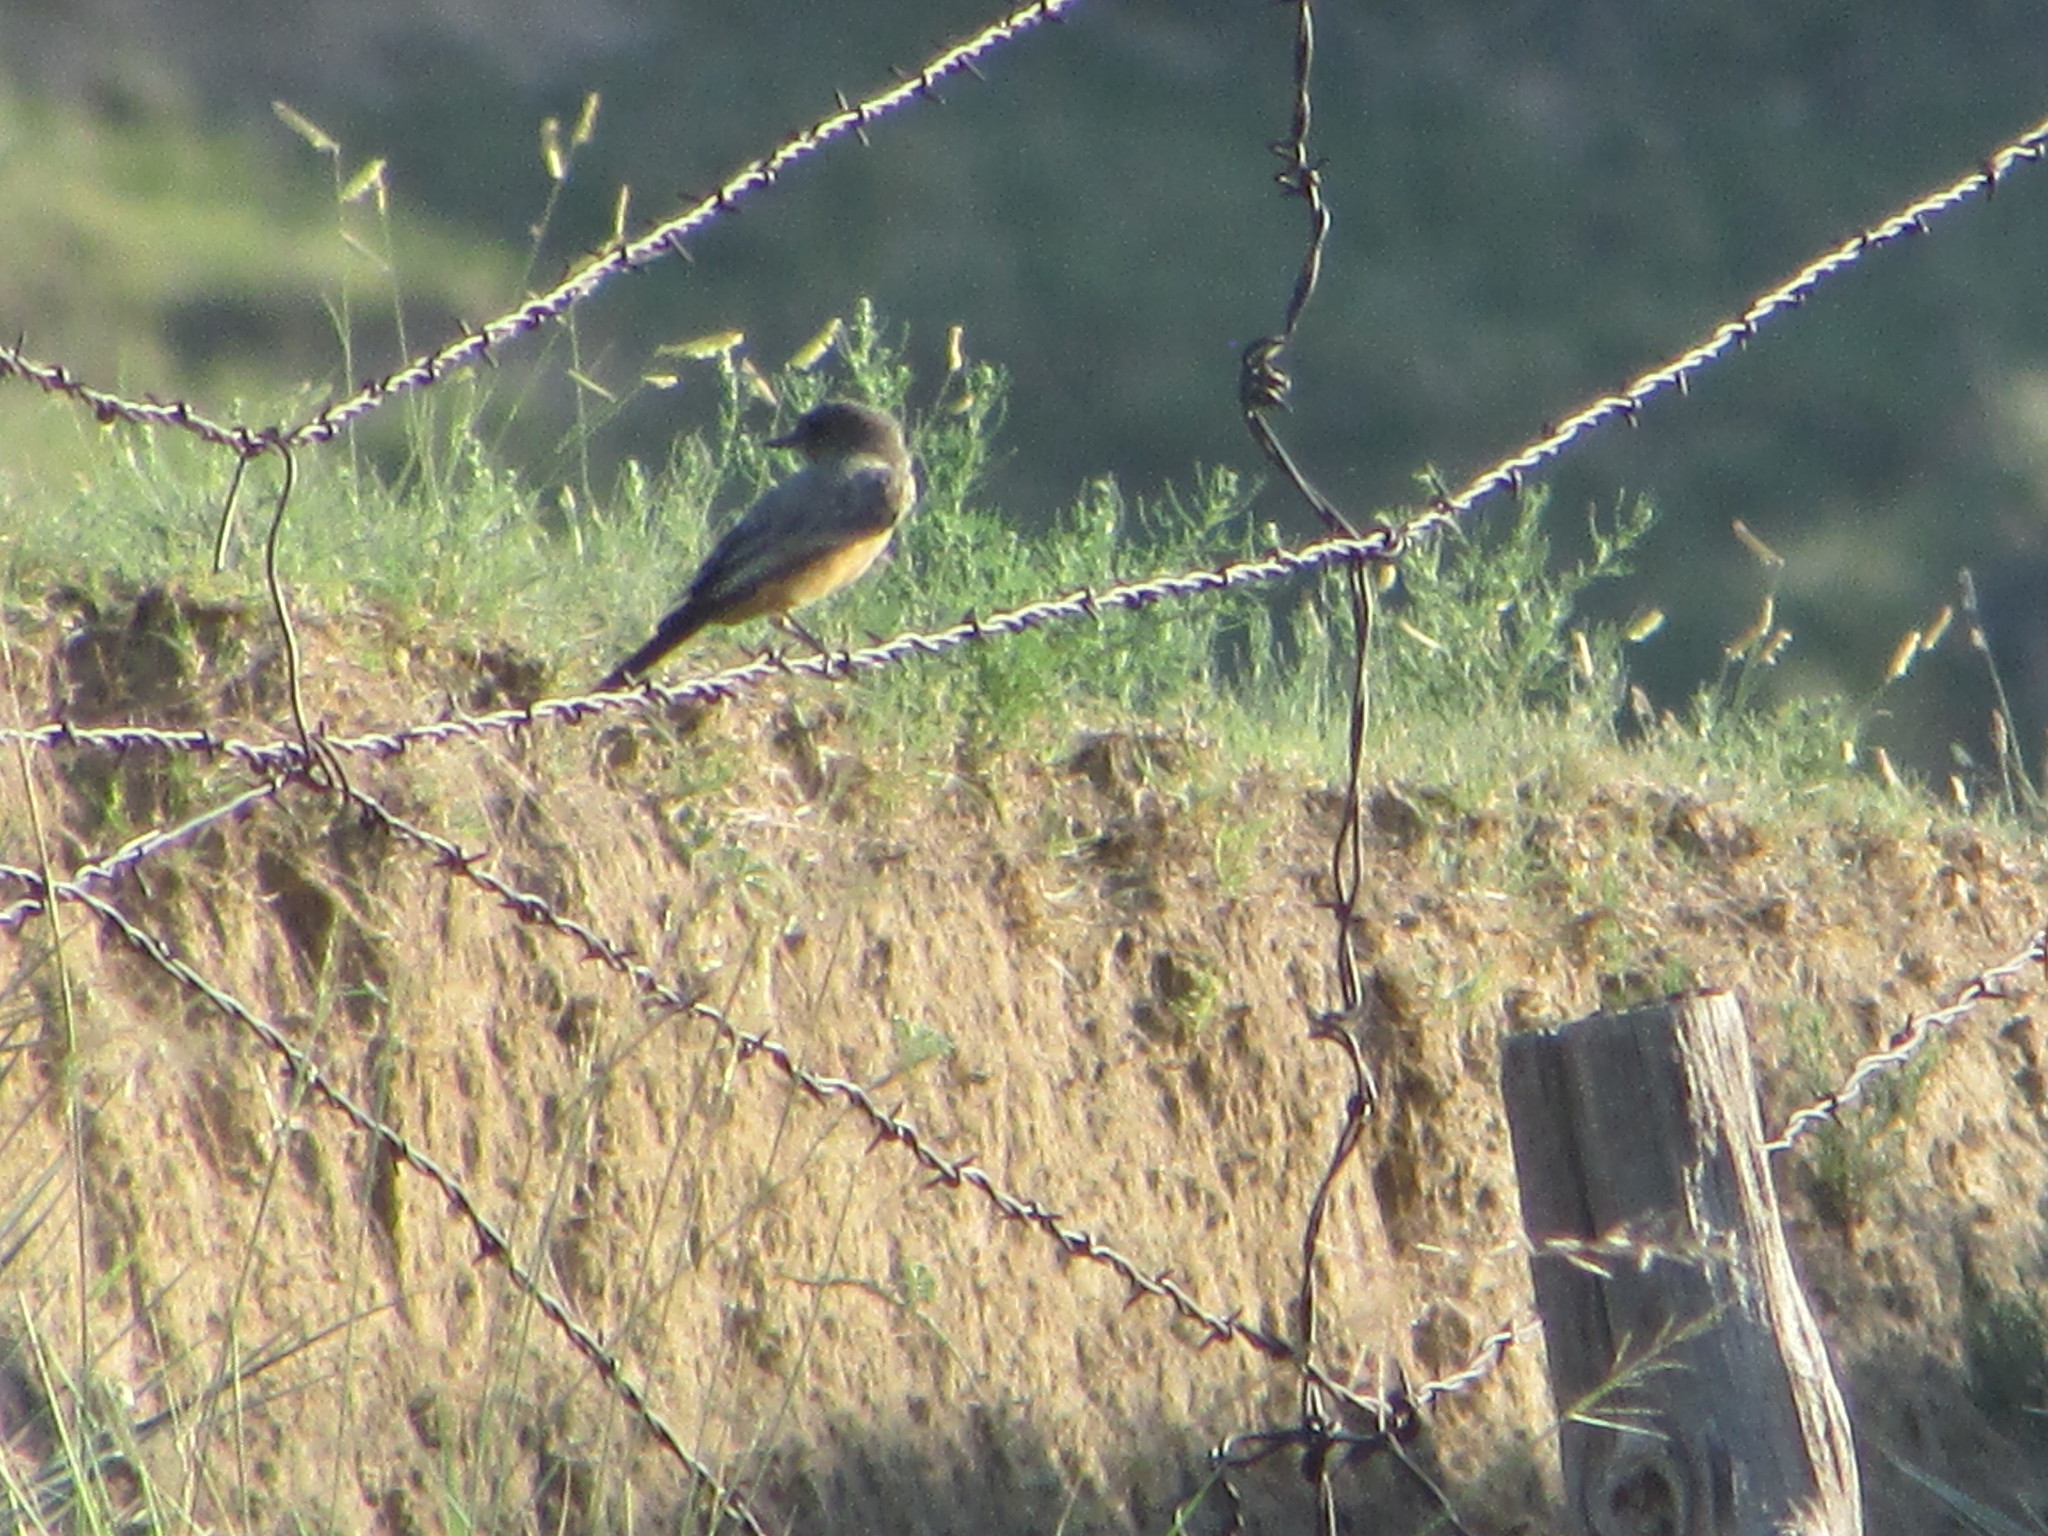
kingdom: Animalia
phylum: Chordata
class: Aves
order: Passeriformes
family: Tyrannidae
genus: Sayornis
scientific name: Sayornis saya
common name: Say's phoebe
